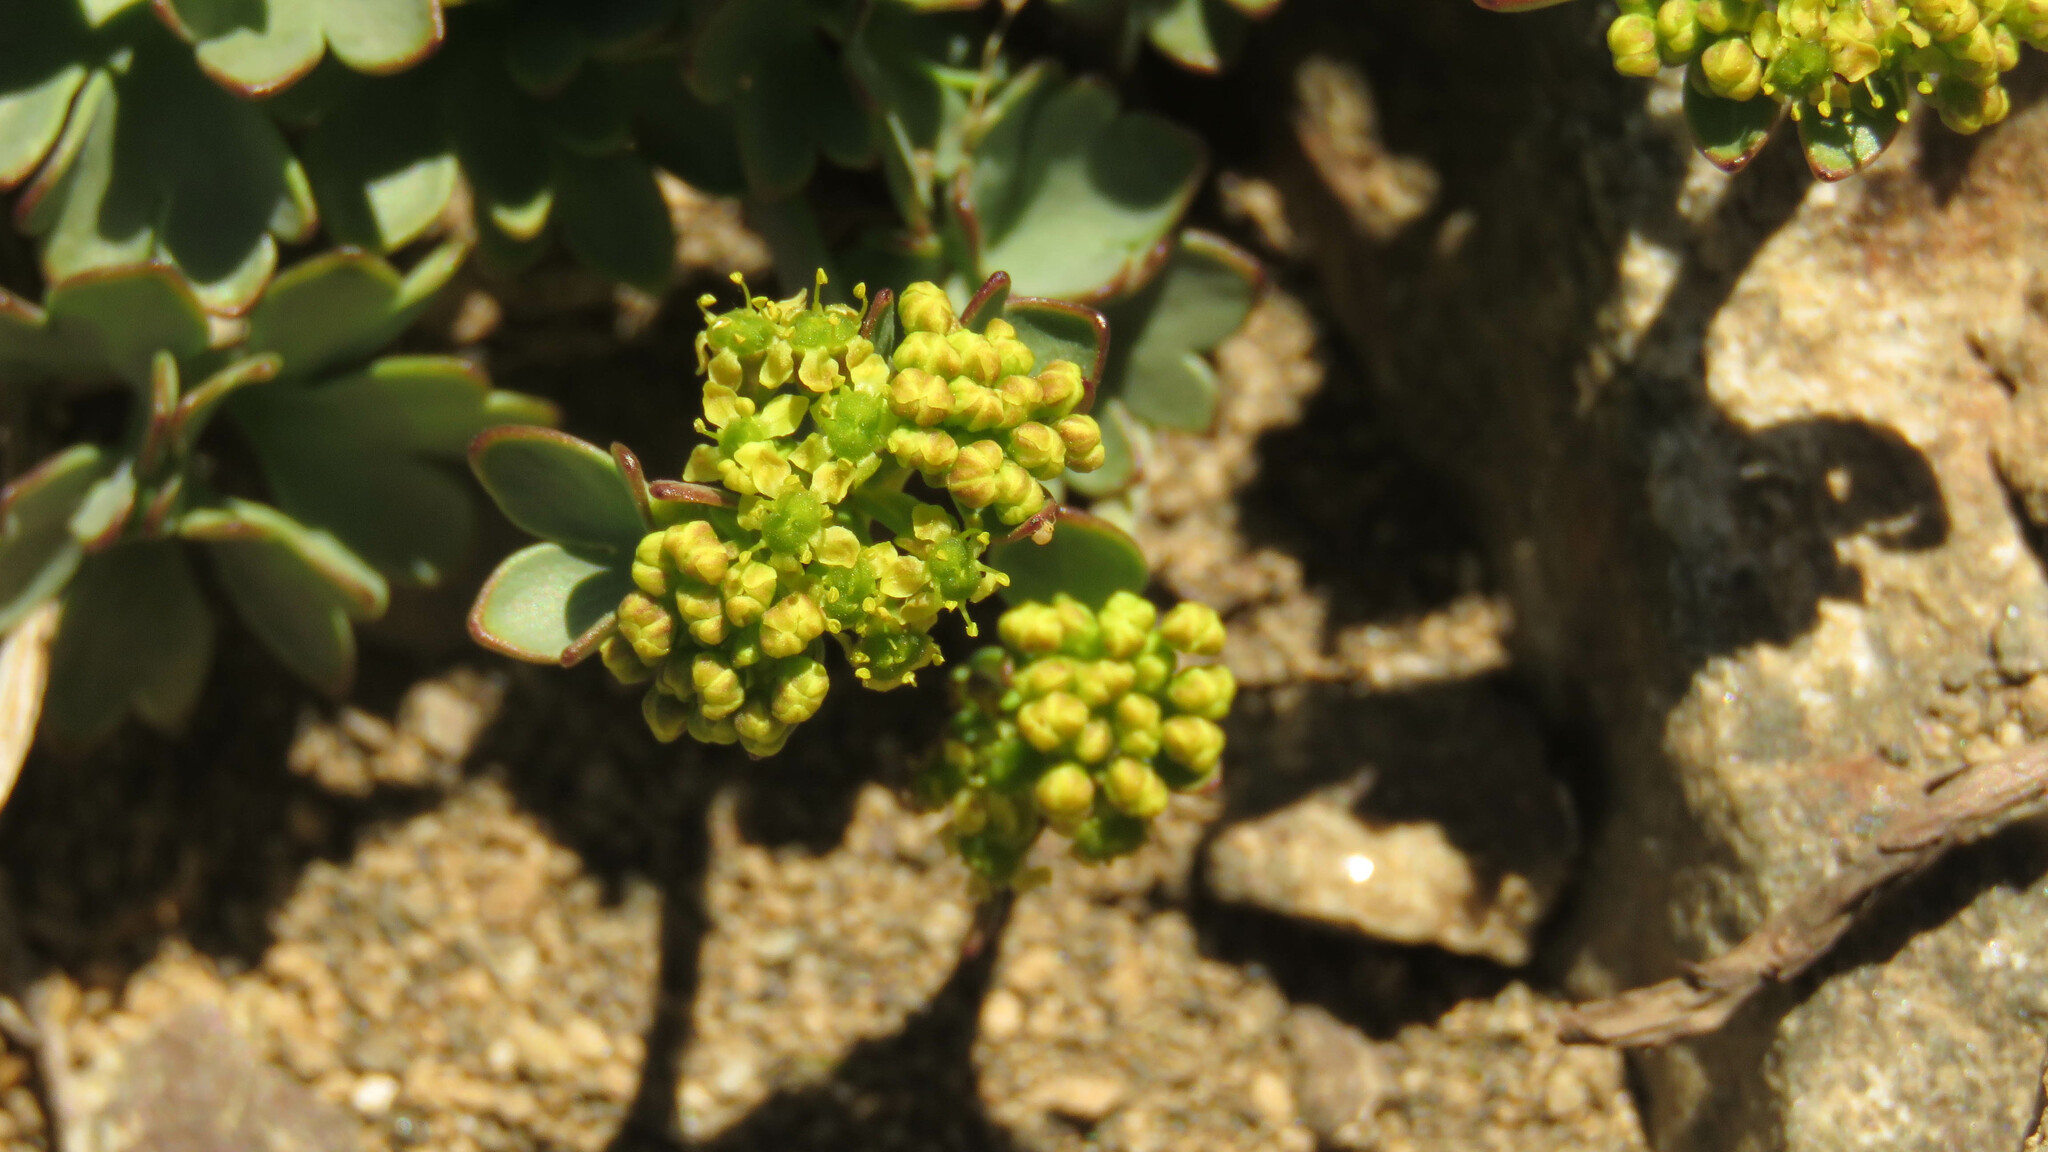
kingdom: Plantae
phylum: Tracheophyta
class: Magnoliopsida
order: Apiales
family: Apiaceae
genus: Azorella
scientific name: Azorella andina
